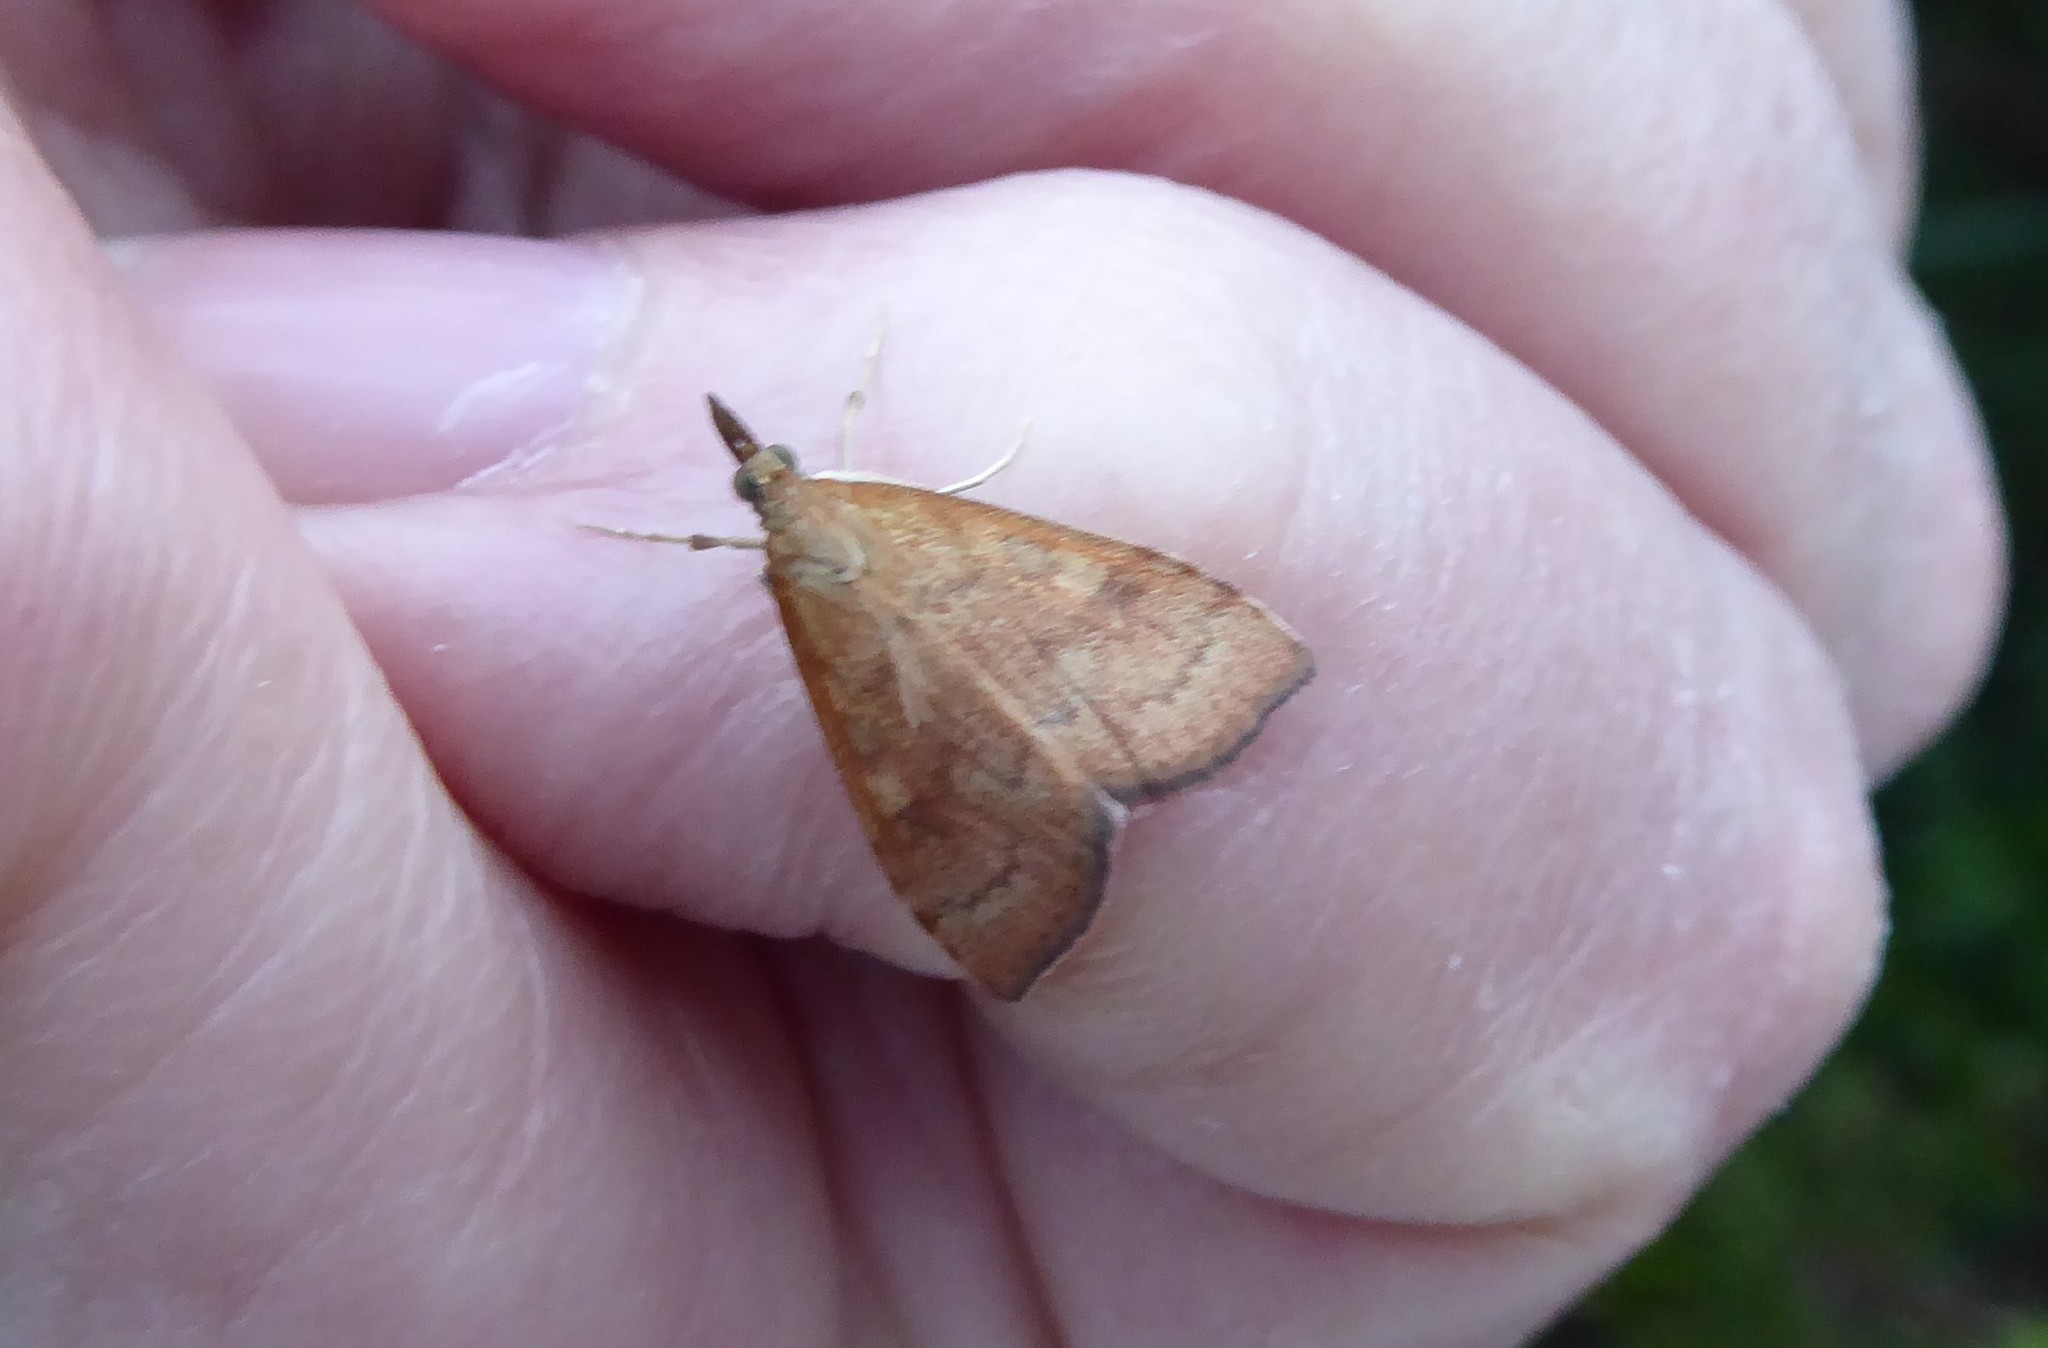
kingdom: Animalia
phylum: Arthropoda
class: Insecta
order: Lepidoptera
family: Crambidae
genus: Udea
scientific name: Udea Mnesictena flavidalis
